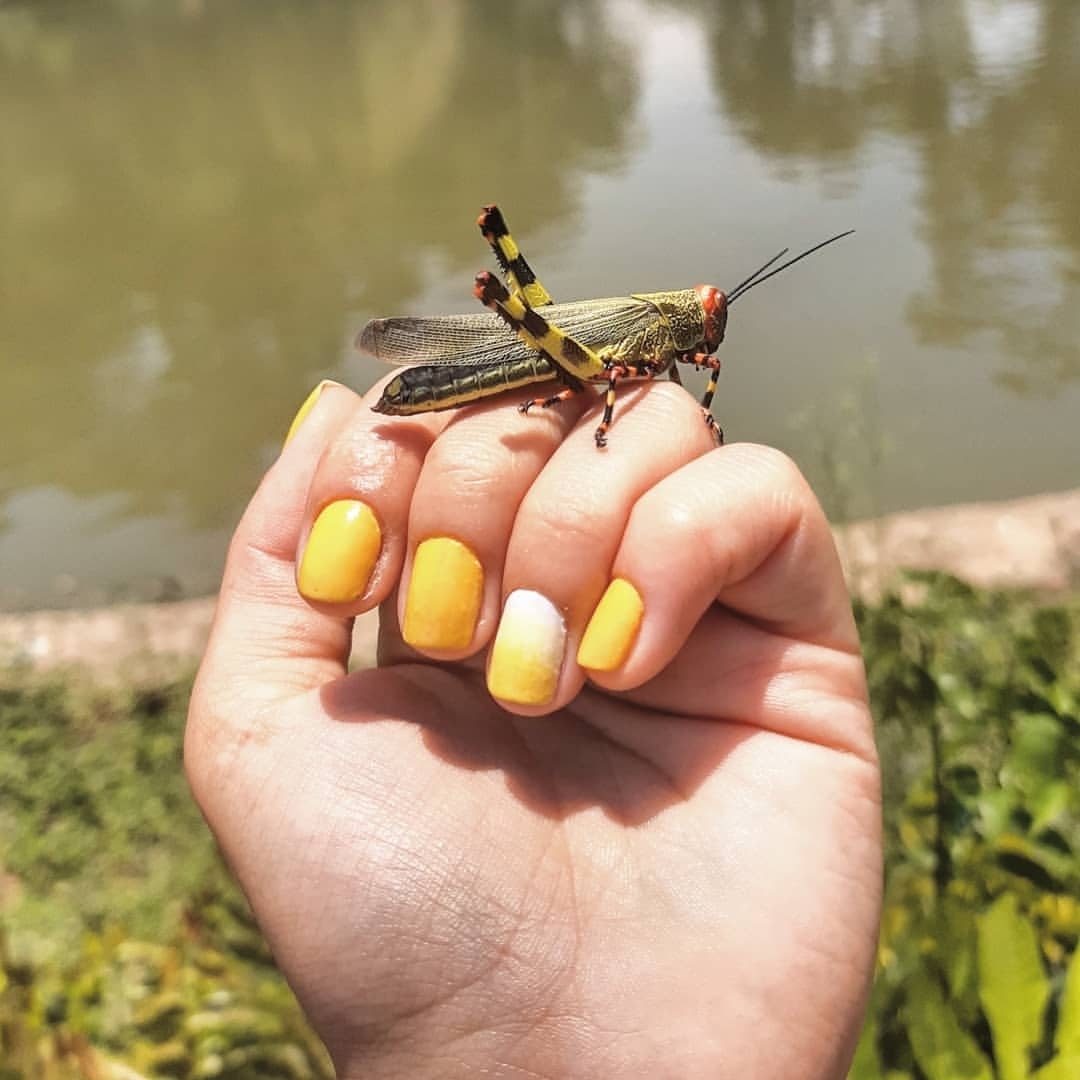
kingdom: Animalia
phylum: Arthropoda
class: Insecta
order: Orthoptera
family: Romaleidae
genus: Zoniopoda
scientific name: Zoniopoda tarsata
